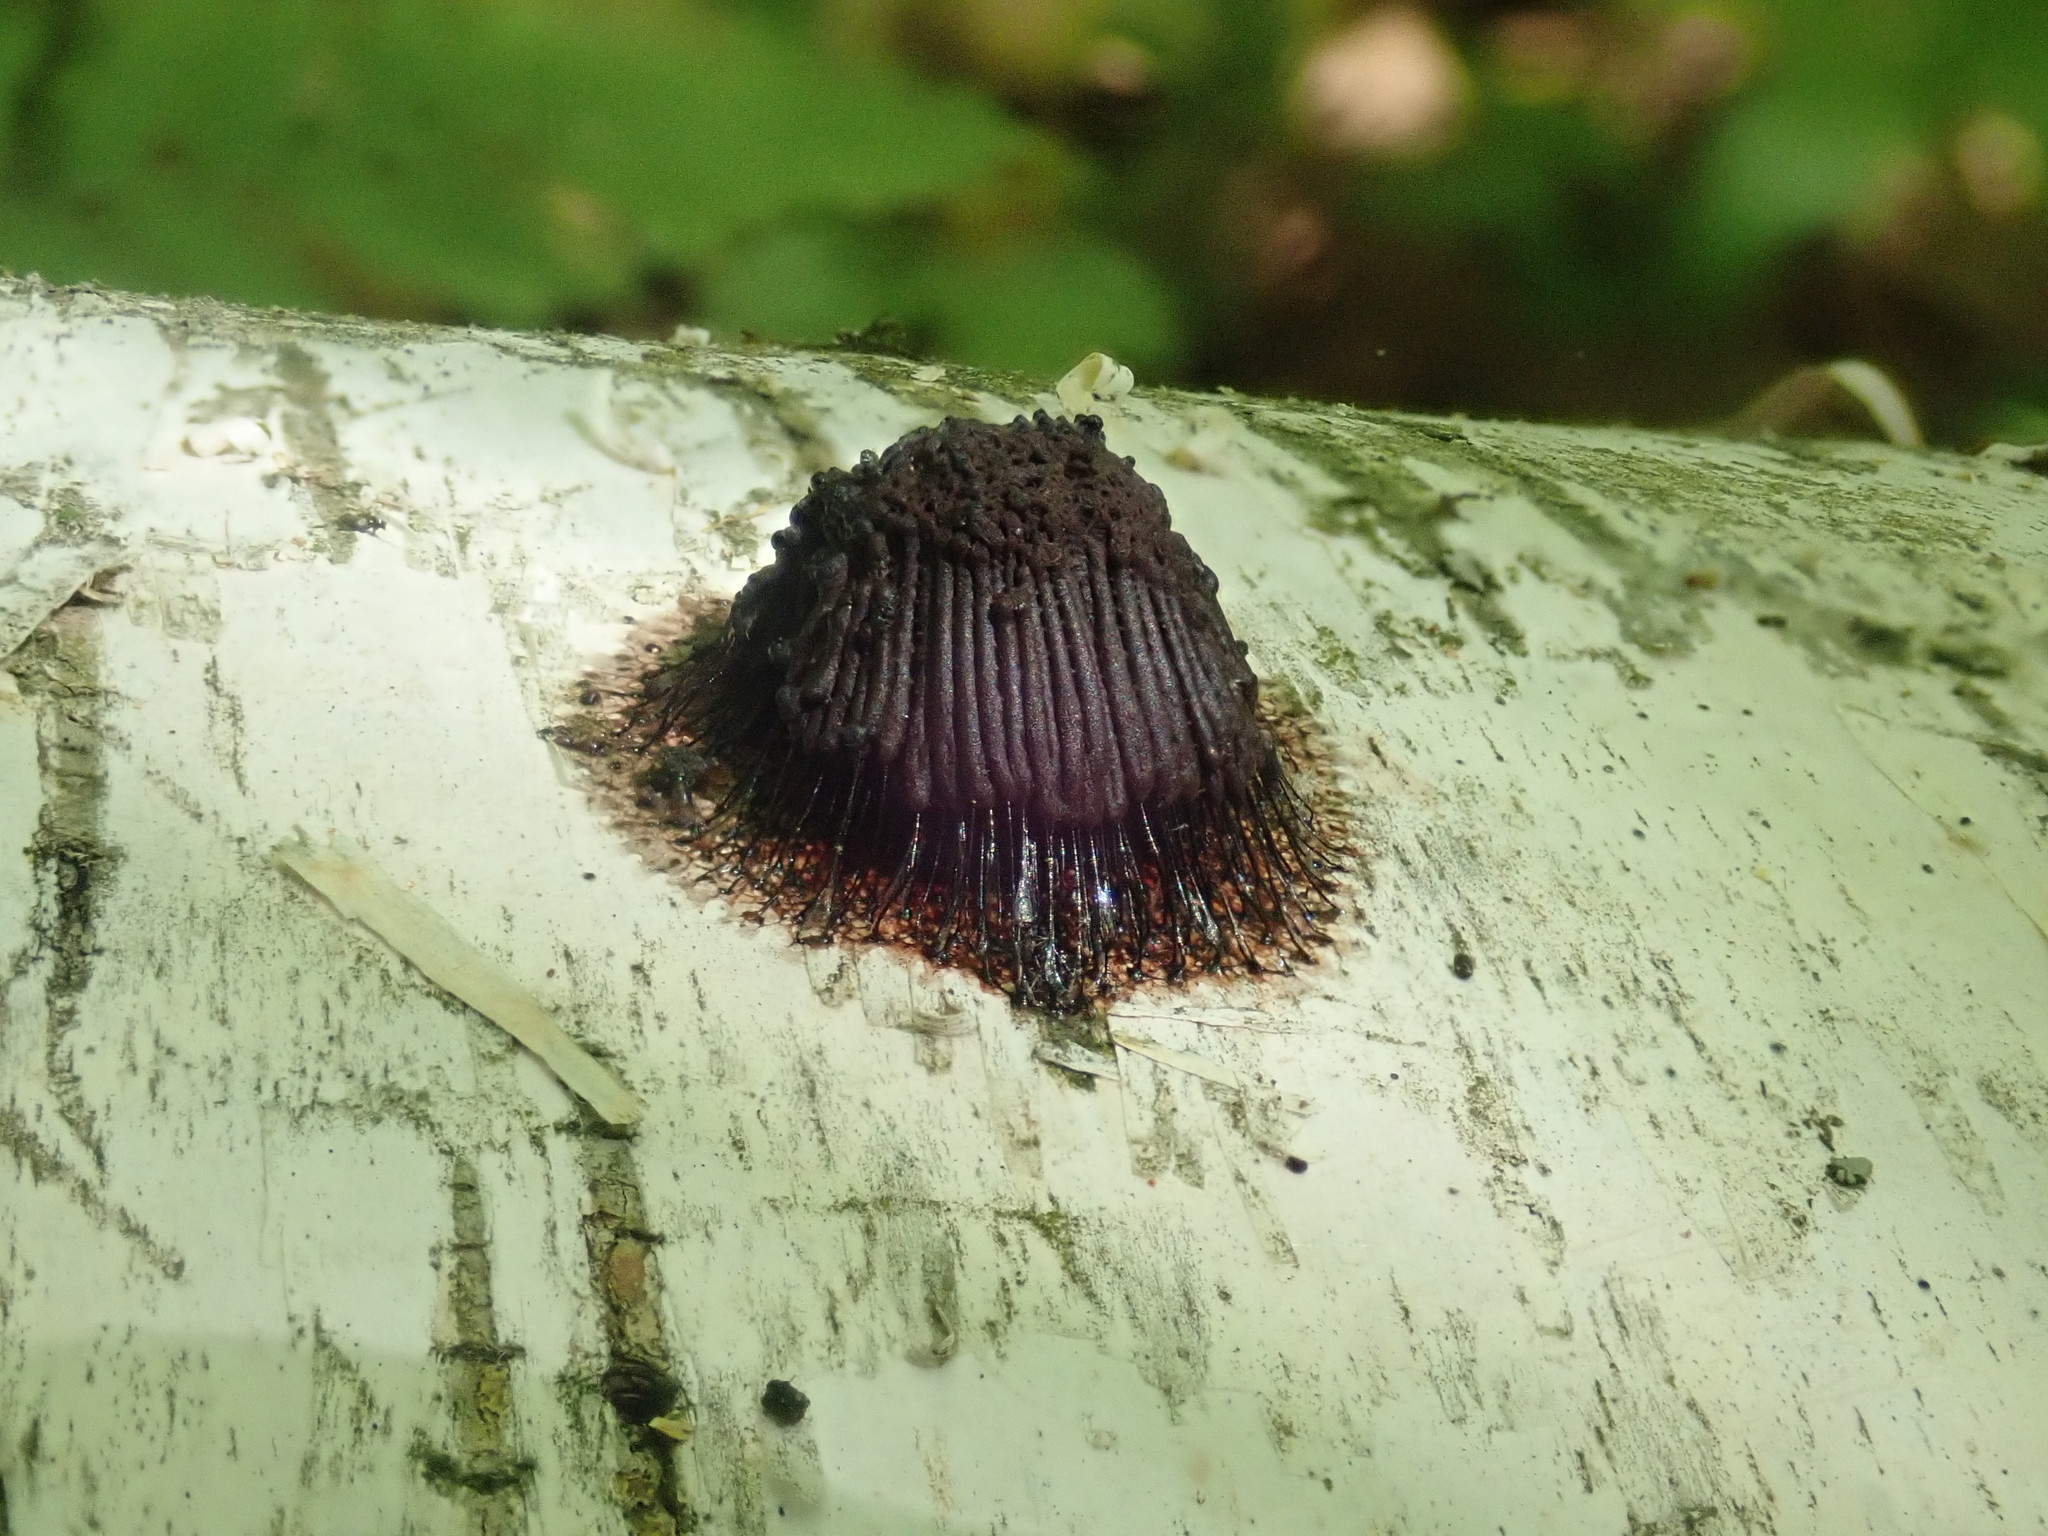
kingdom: Protozoa
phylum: Mycetozoa
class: Myxomycetes
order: Stemonitidales
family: Stemonitidaceae
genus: Stemonitis
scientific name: Stemonitis splendens
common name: Chocolate tube slime
